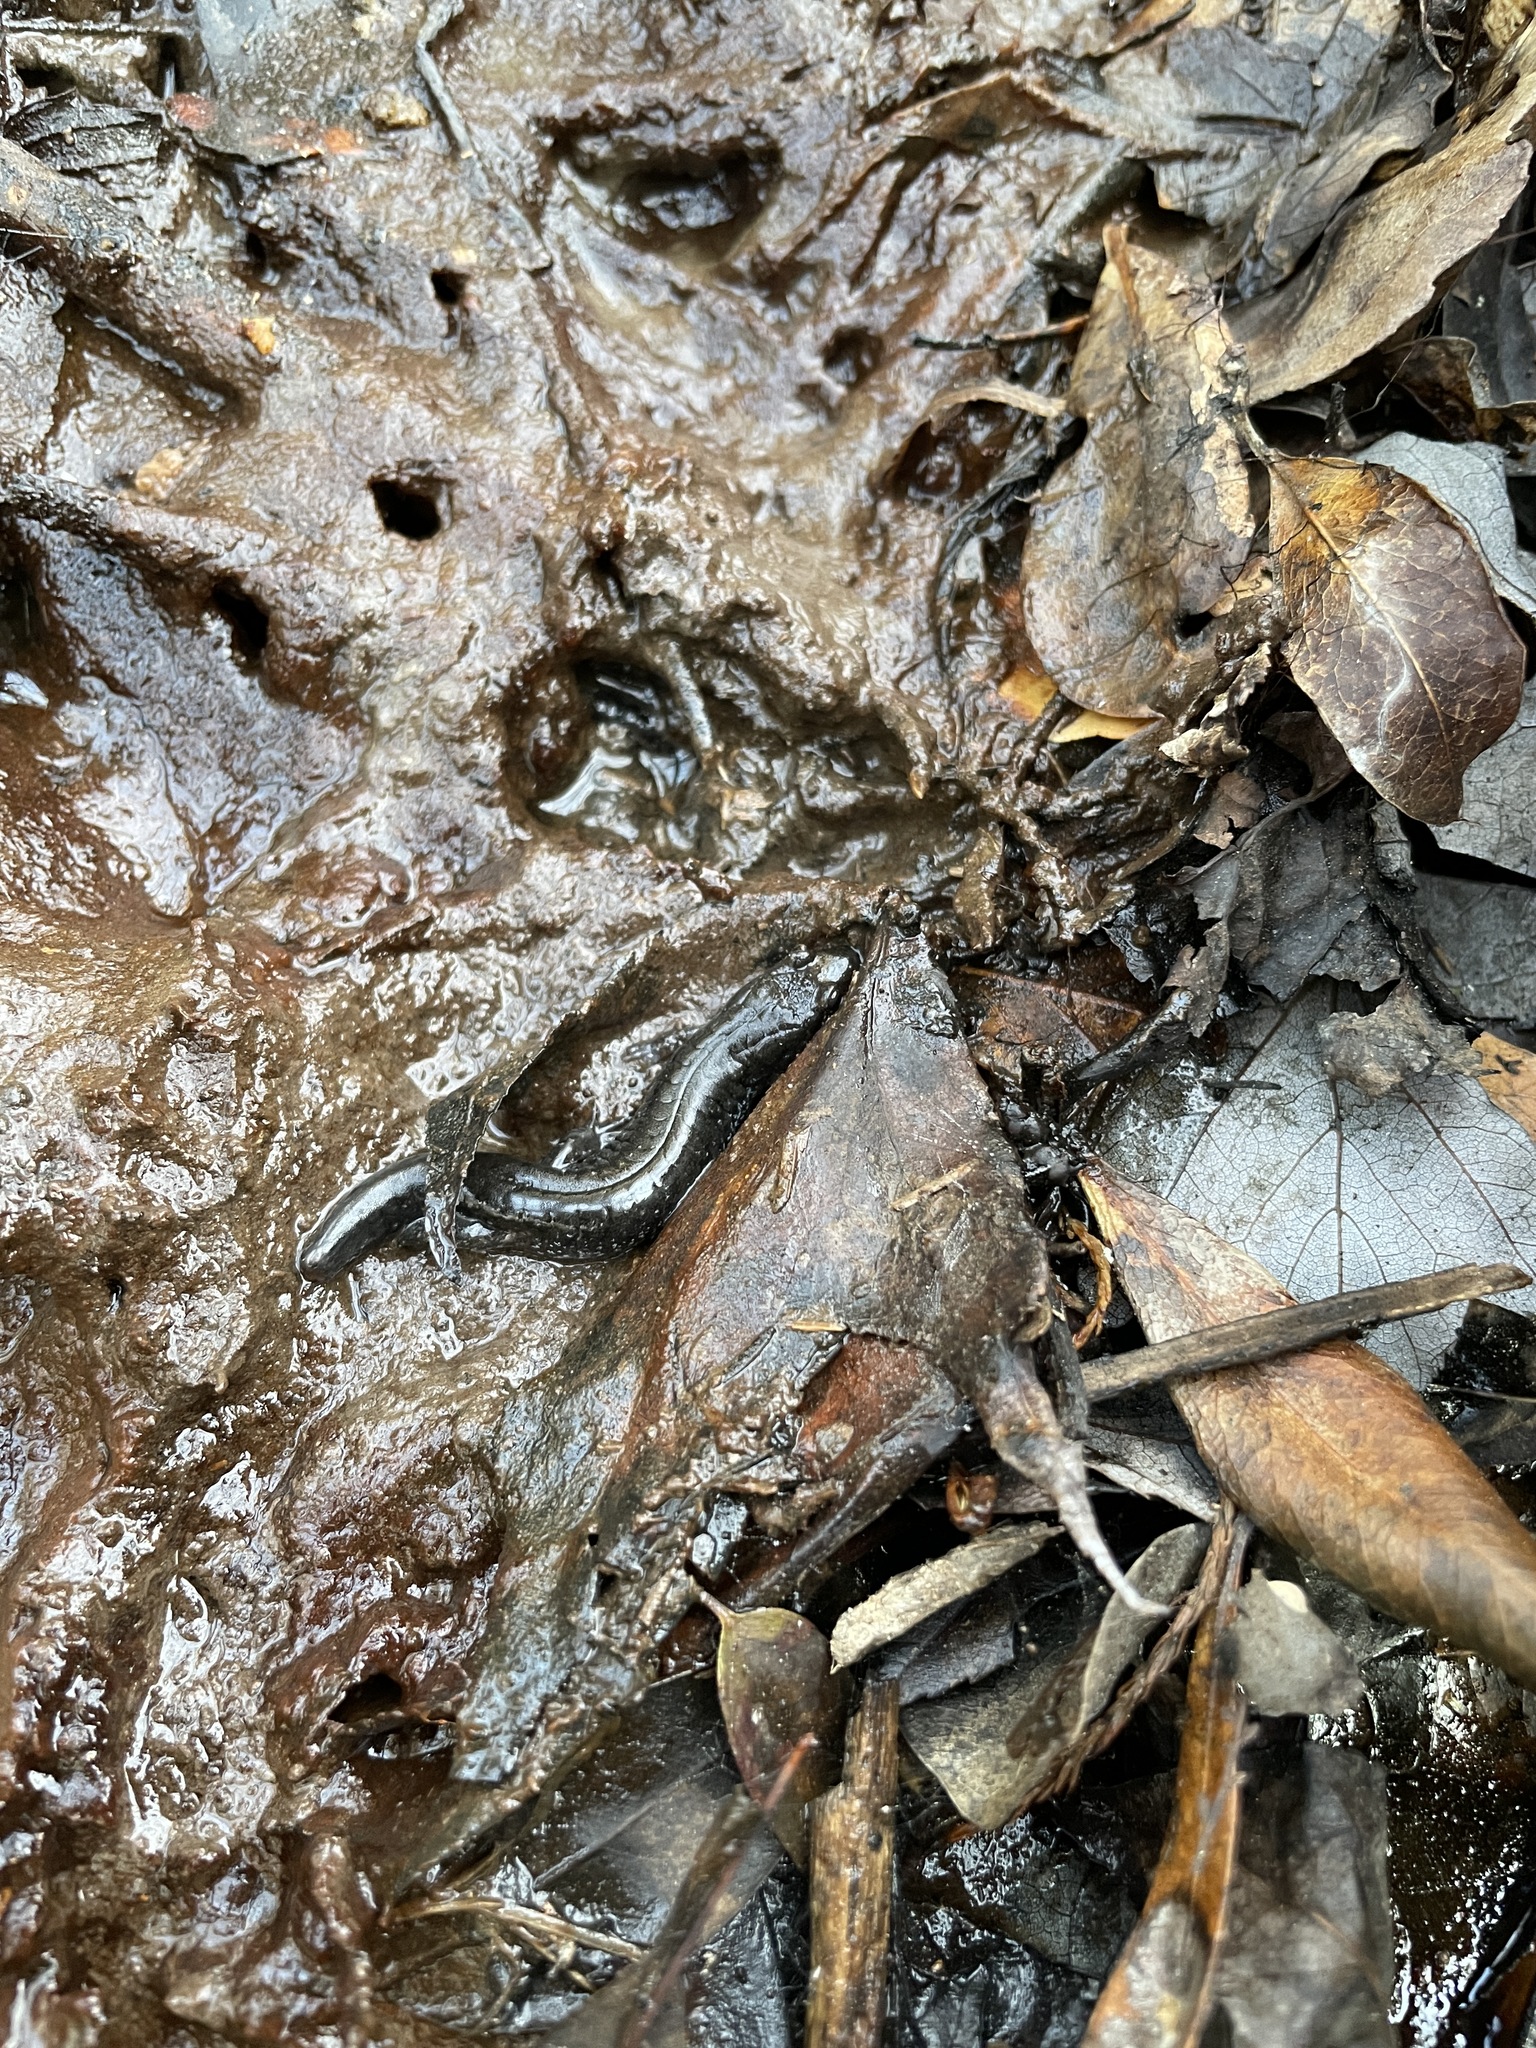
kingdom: Animalia
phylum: Chordata
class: Amphibia
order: Caudata
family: Plethodontidae
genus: Desmognathus
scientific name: Desmognathus apalachicolae
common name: Apalachicola dusky salamander
